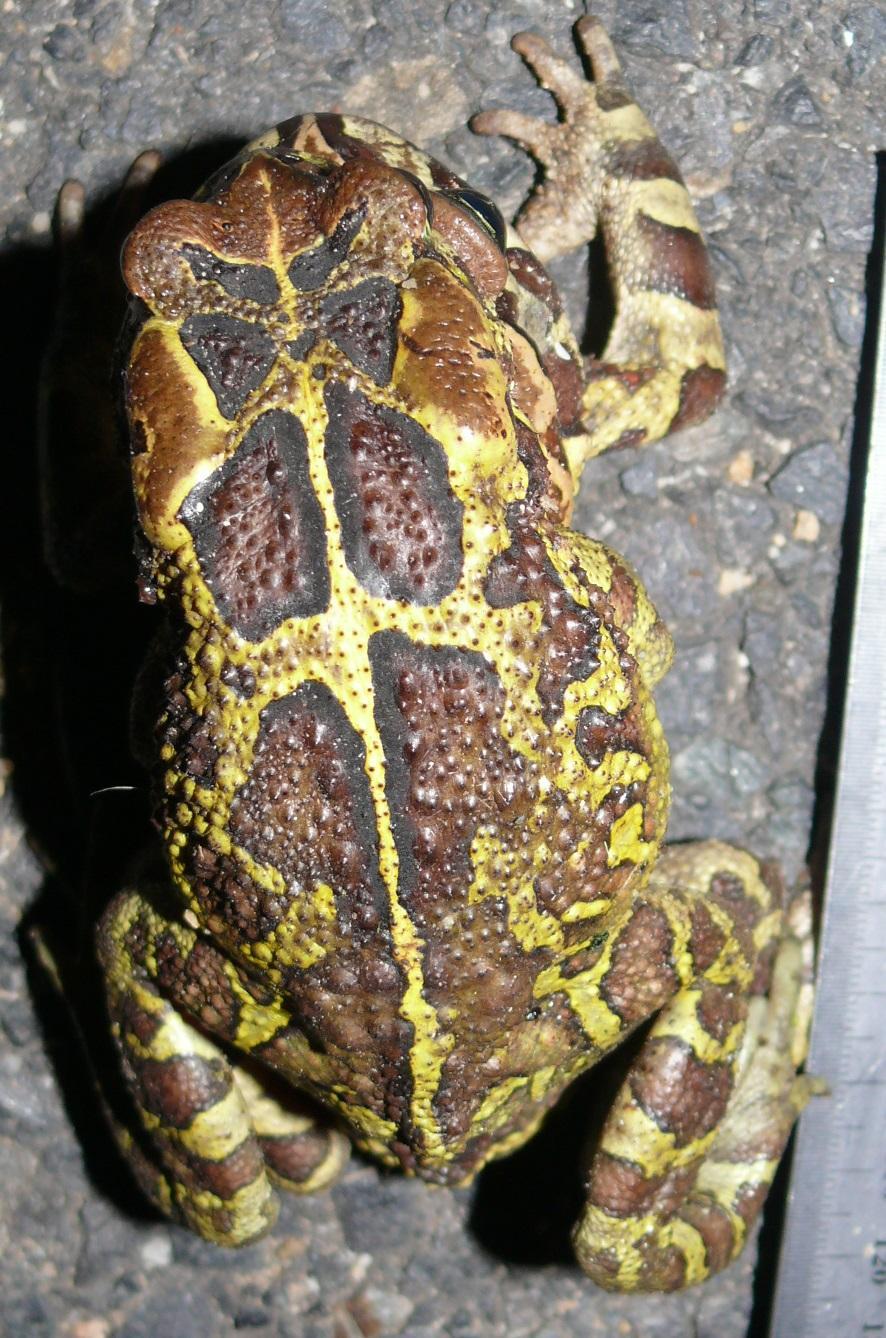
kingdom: Animalia
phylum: Chordata
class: Amphibia
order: Anura
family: Bufonidae
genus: Sclerophrys
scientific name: Sclerophrys pantherina
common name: Panther toad
